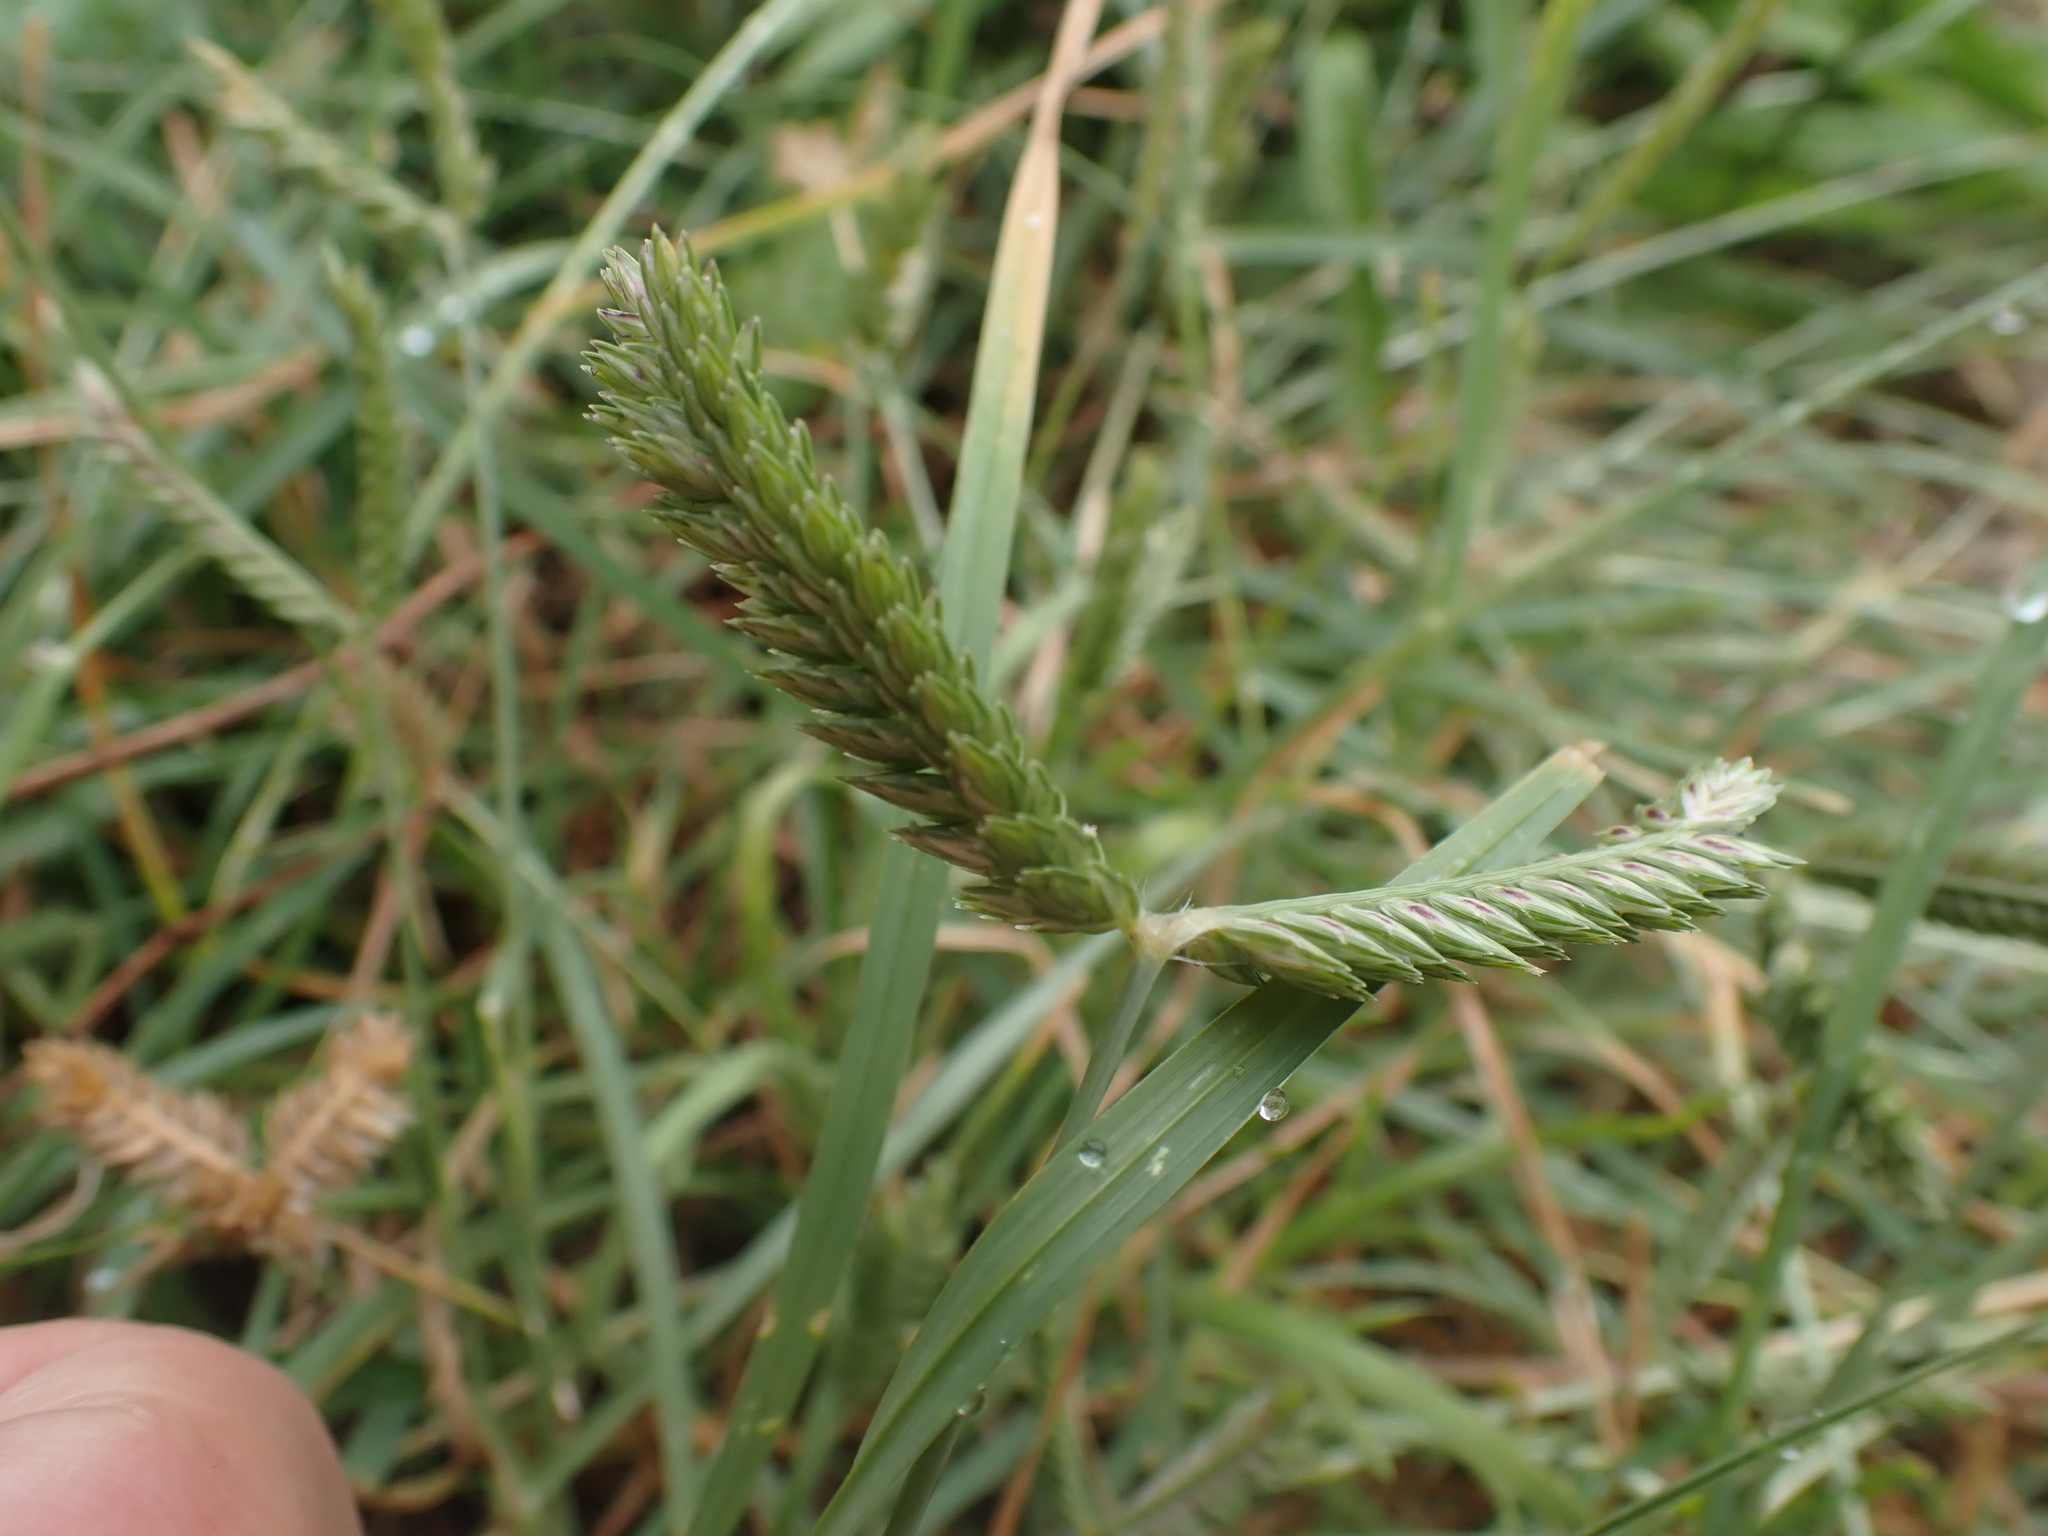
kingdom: Plantae
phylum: Tracheophyta
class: Liliopsida
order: Poales
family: Poaceae
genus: Eleusine
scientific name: Eleusine tristachya
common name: American yard-grass
